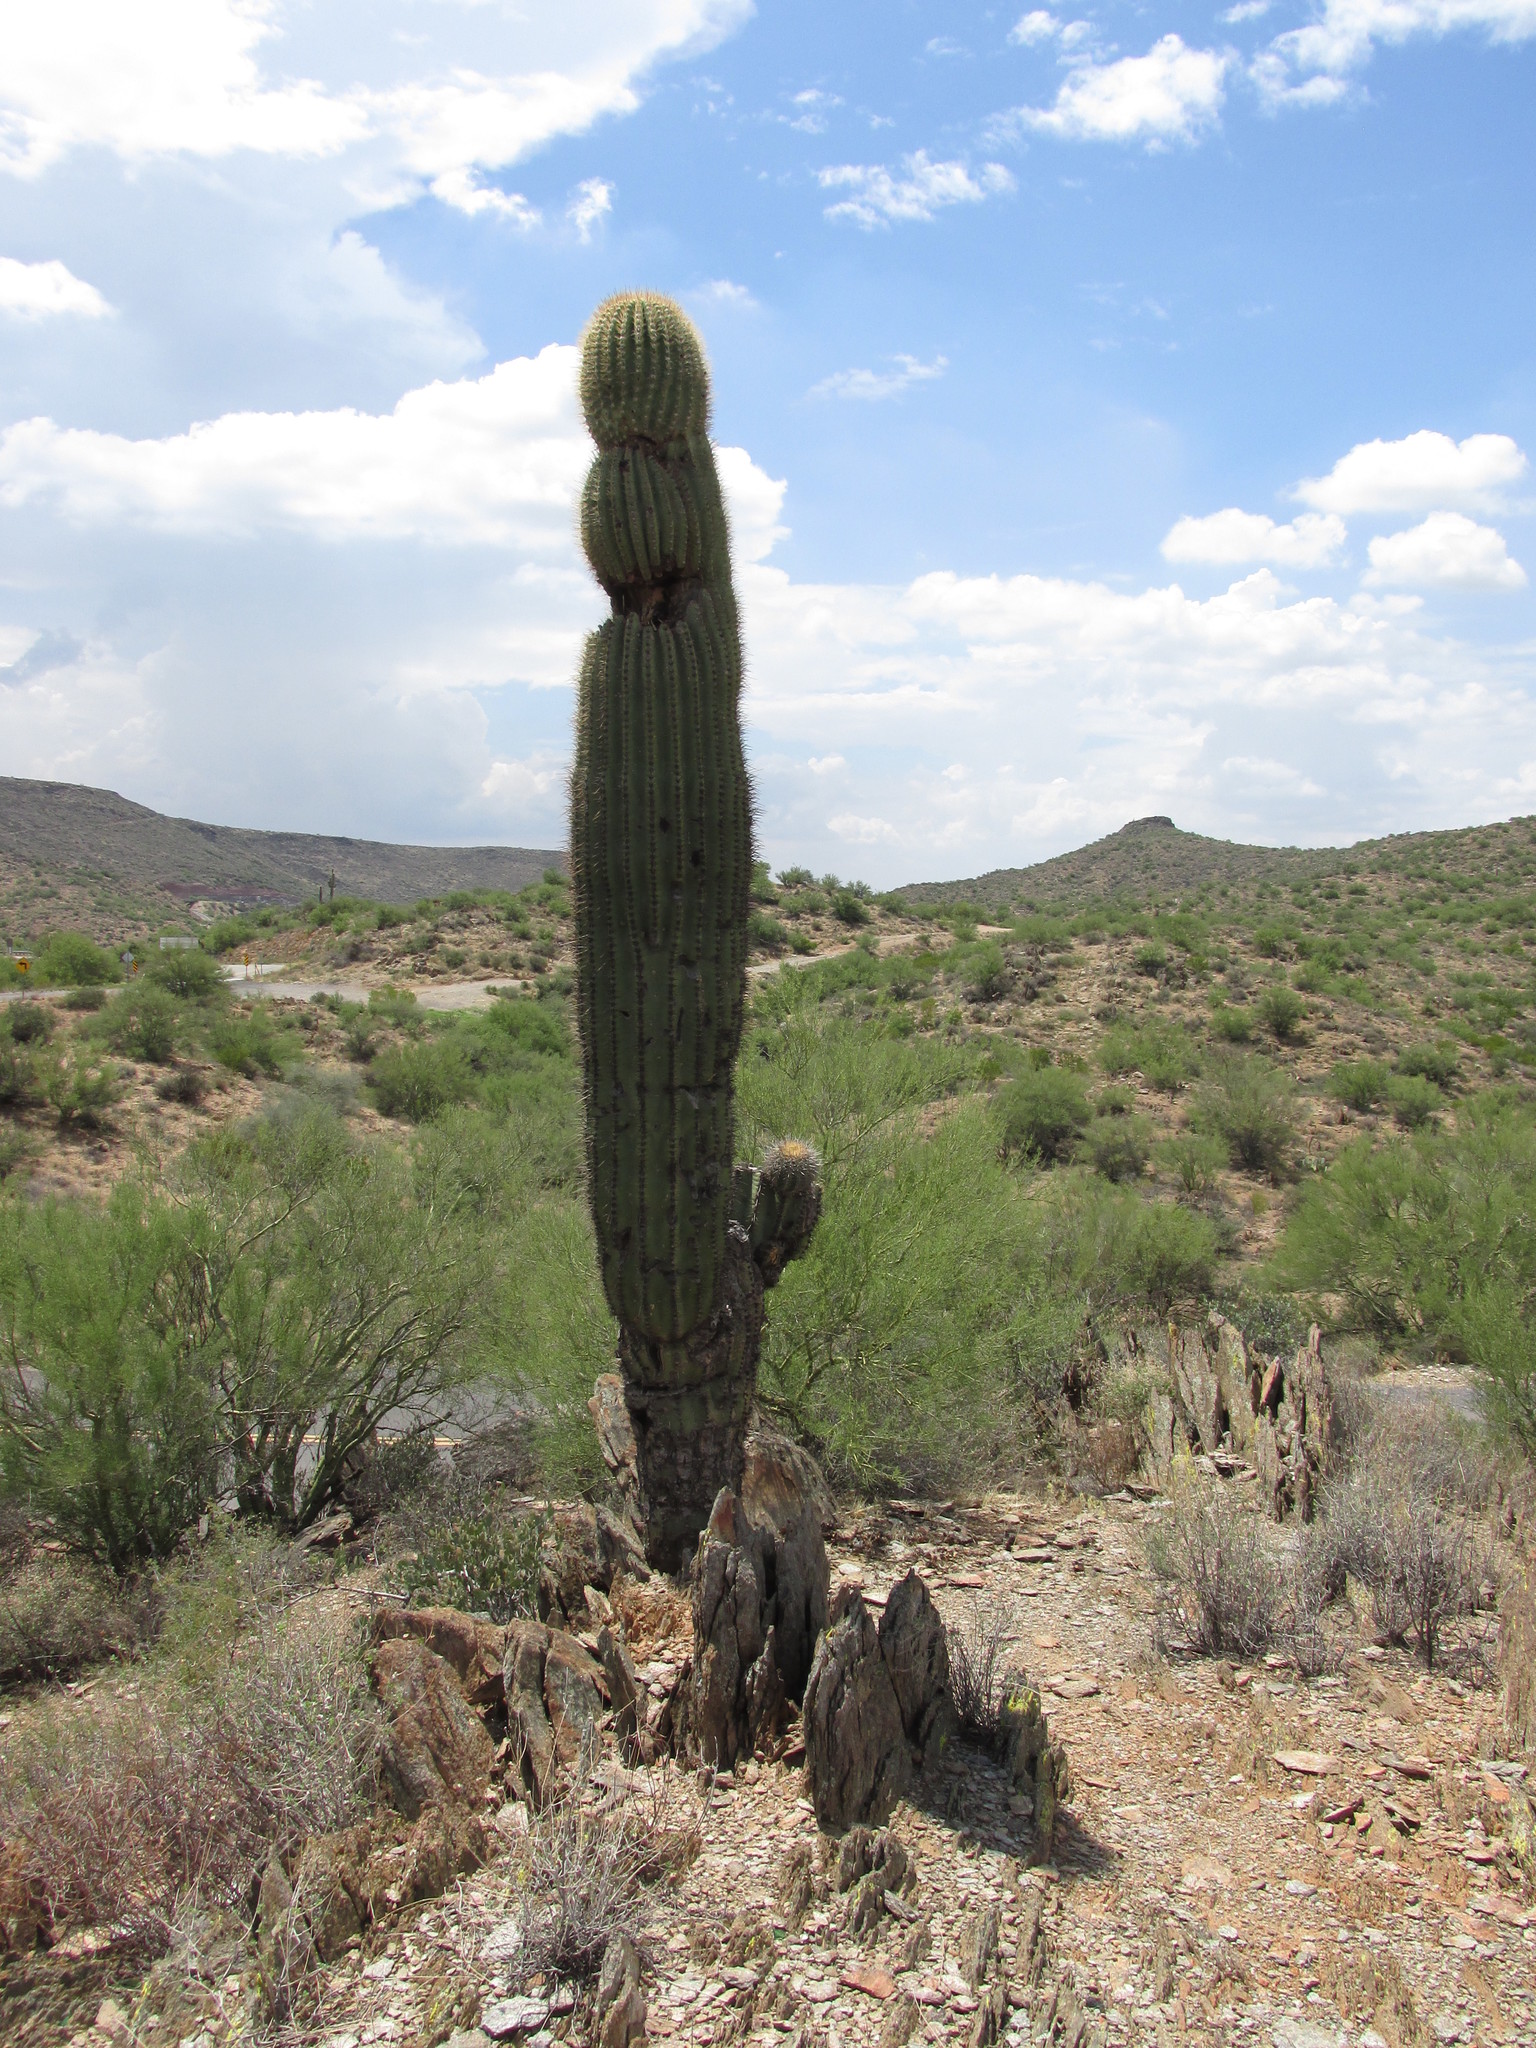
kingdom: Plantae
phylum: Tracheophyta
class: Magnoliopsida
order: Caryophyllales
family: Cactaceae
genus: Carnegiea
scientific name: Carnegiea gigantea
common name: Saguaro
